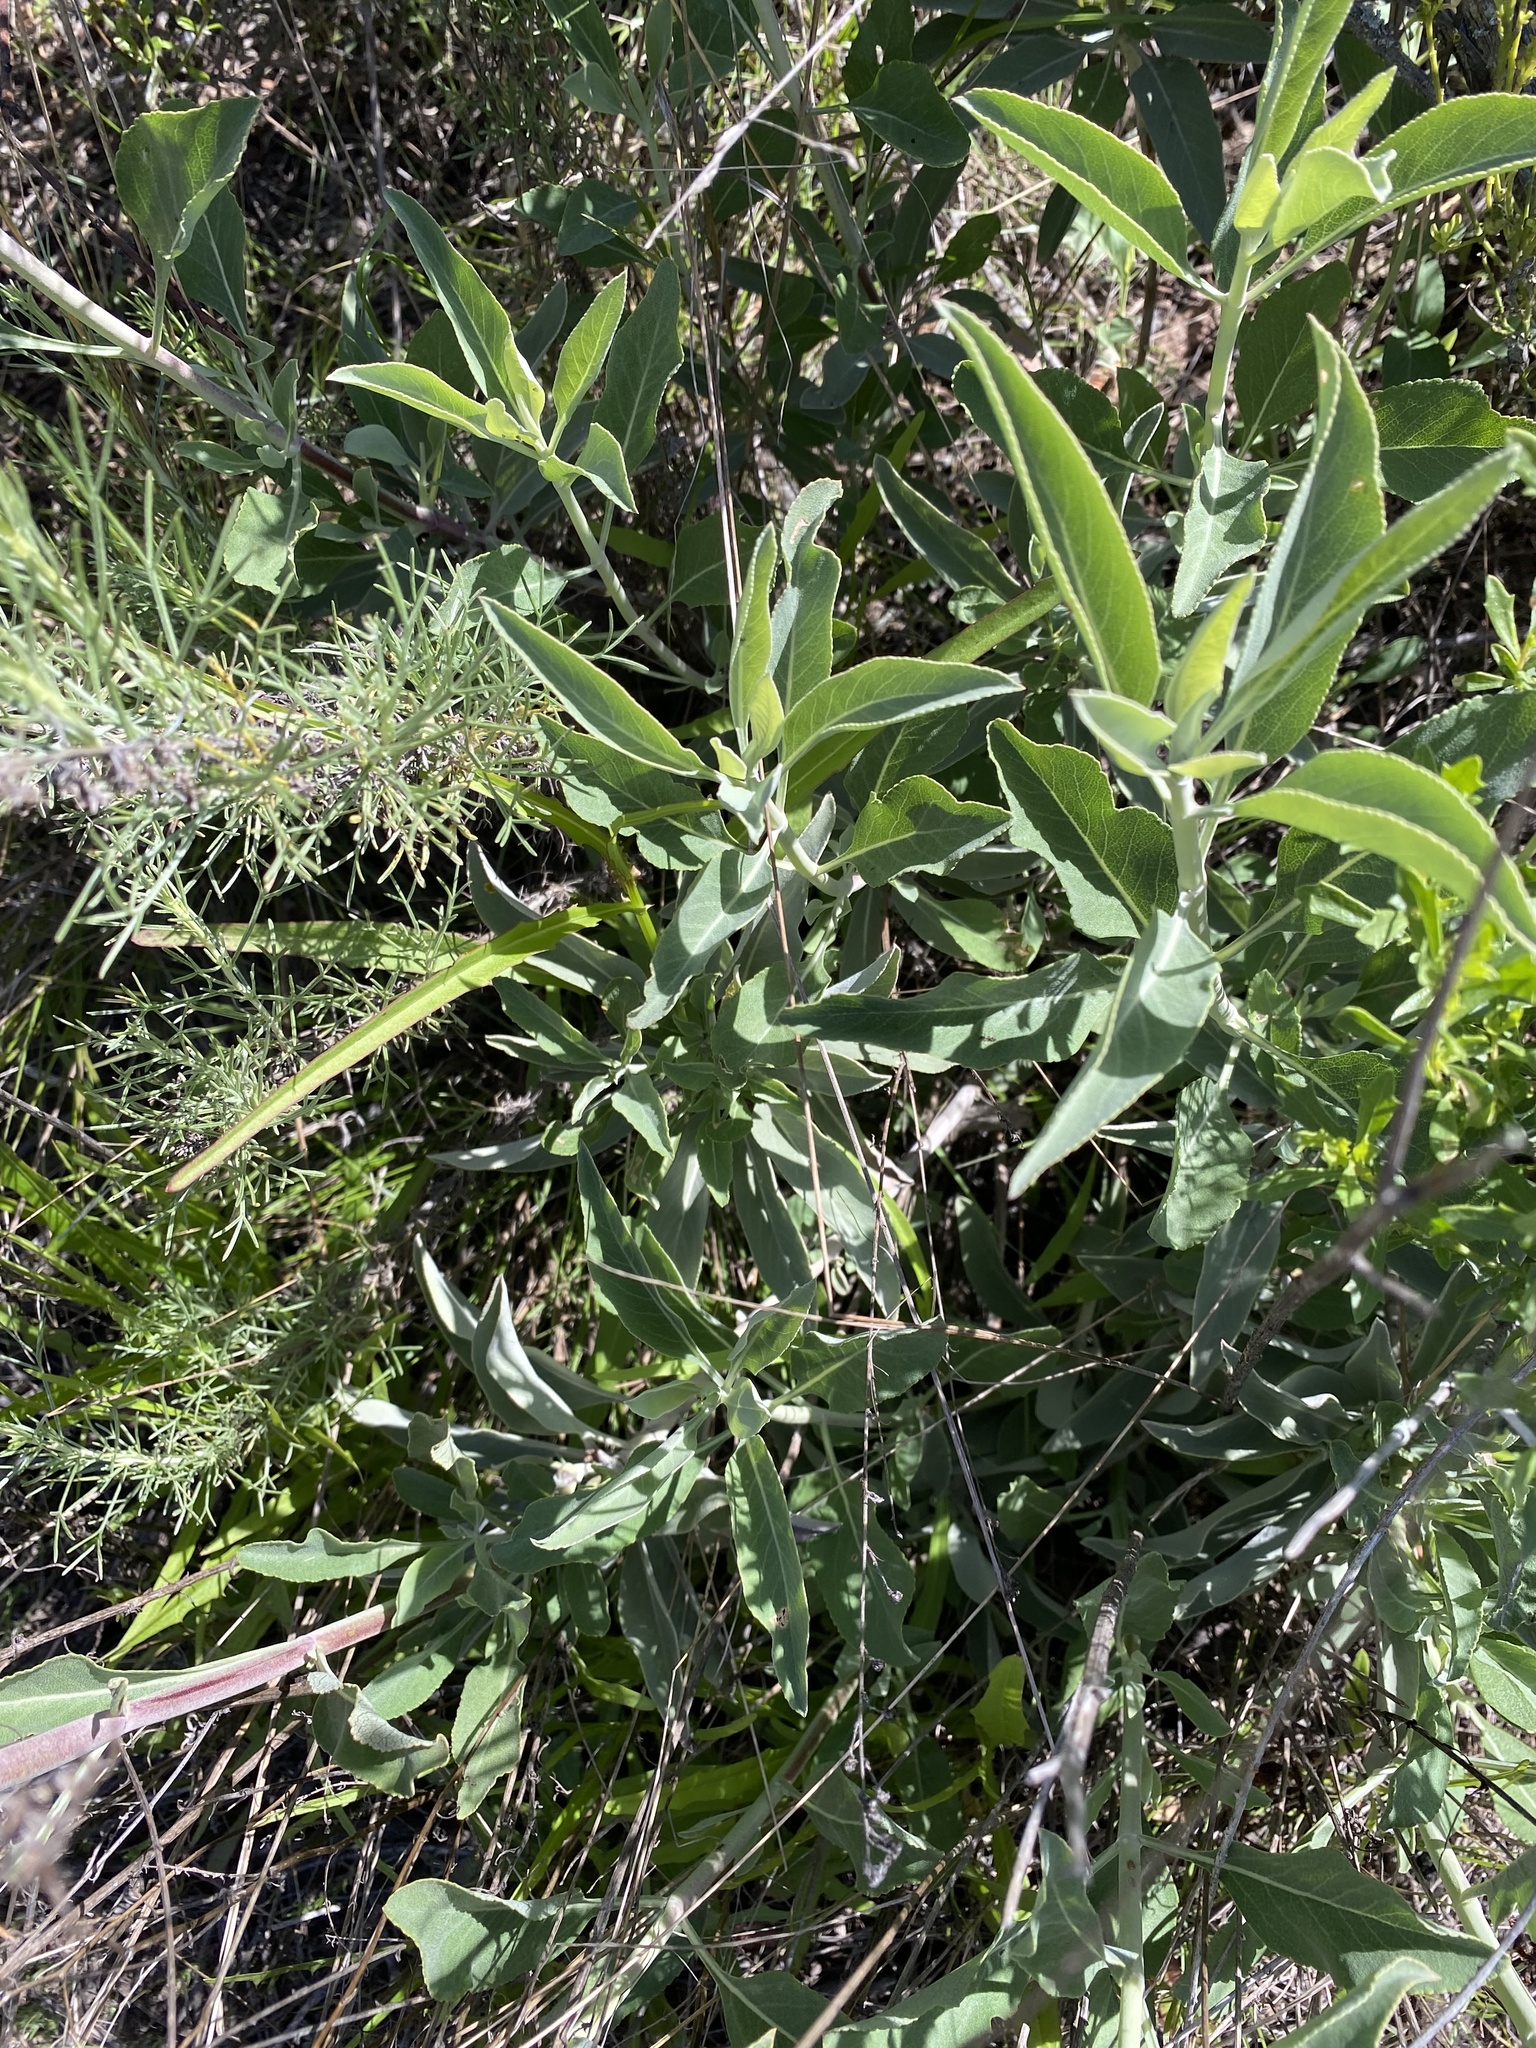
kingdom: Plantae
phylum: Tracheophyta
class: Magnoliopsida
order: Lamiales
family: Lamiaceae
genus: Salvia
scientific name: Salvia apiana
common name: White sage
